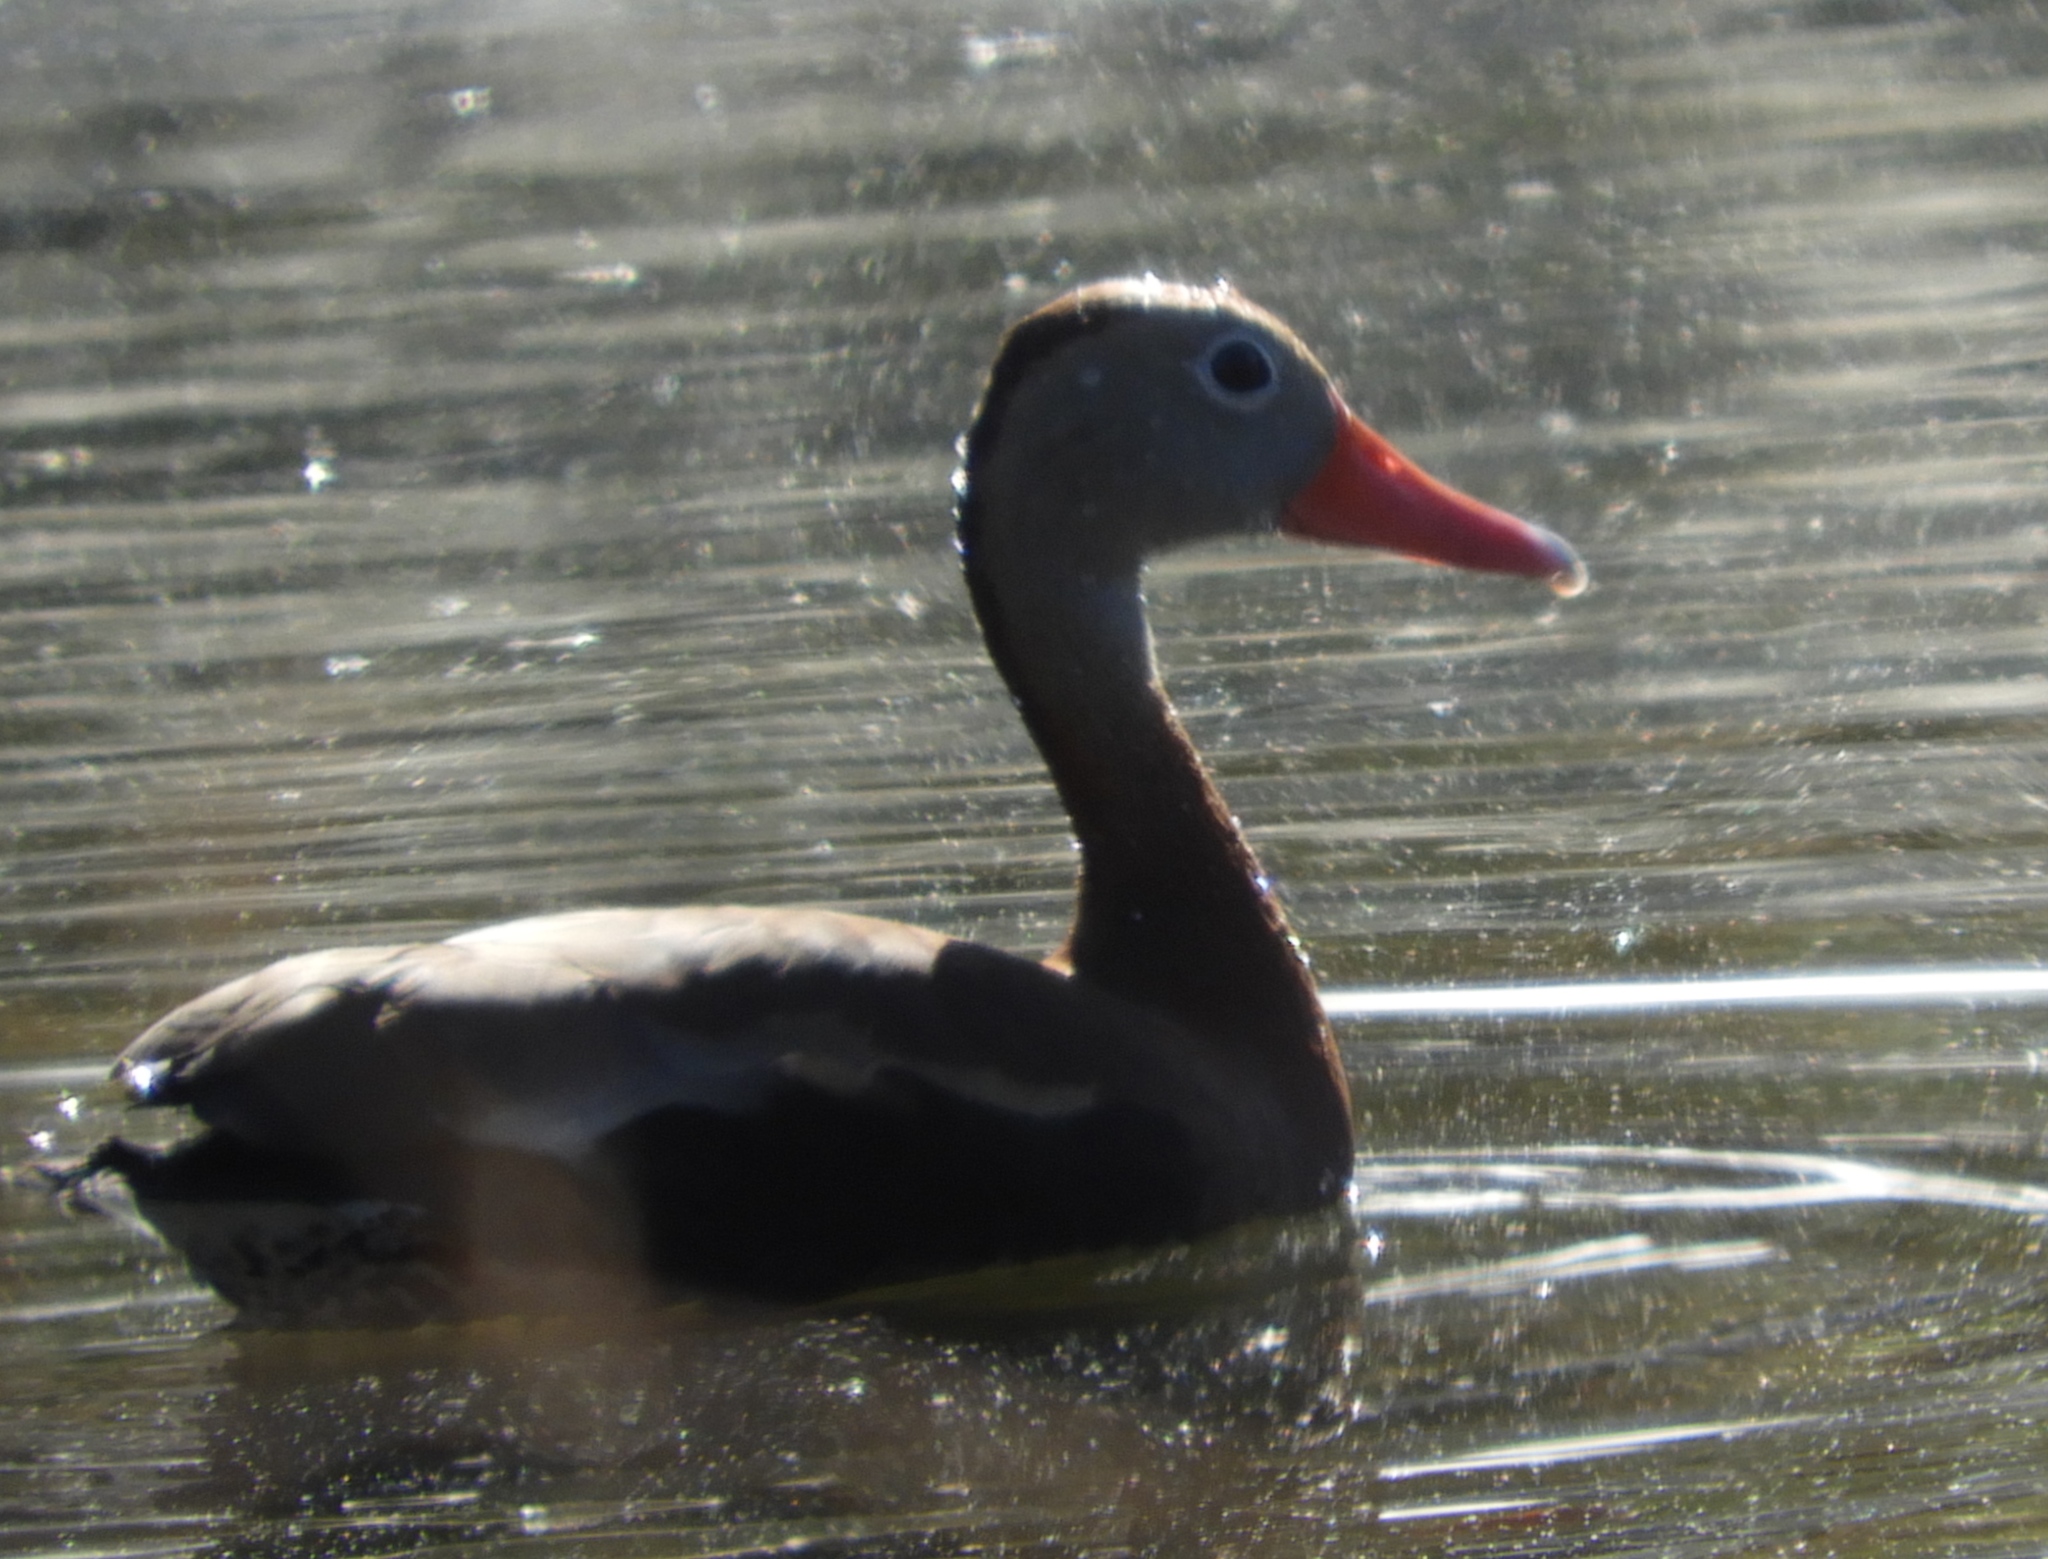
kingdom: Animalia
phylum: Chordata
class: Aves
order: Anseriformes
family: Anatidae
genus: Dendrocygna
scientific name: Dendrocygna autumnalis
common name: Black-bellied whistling duck
